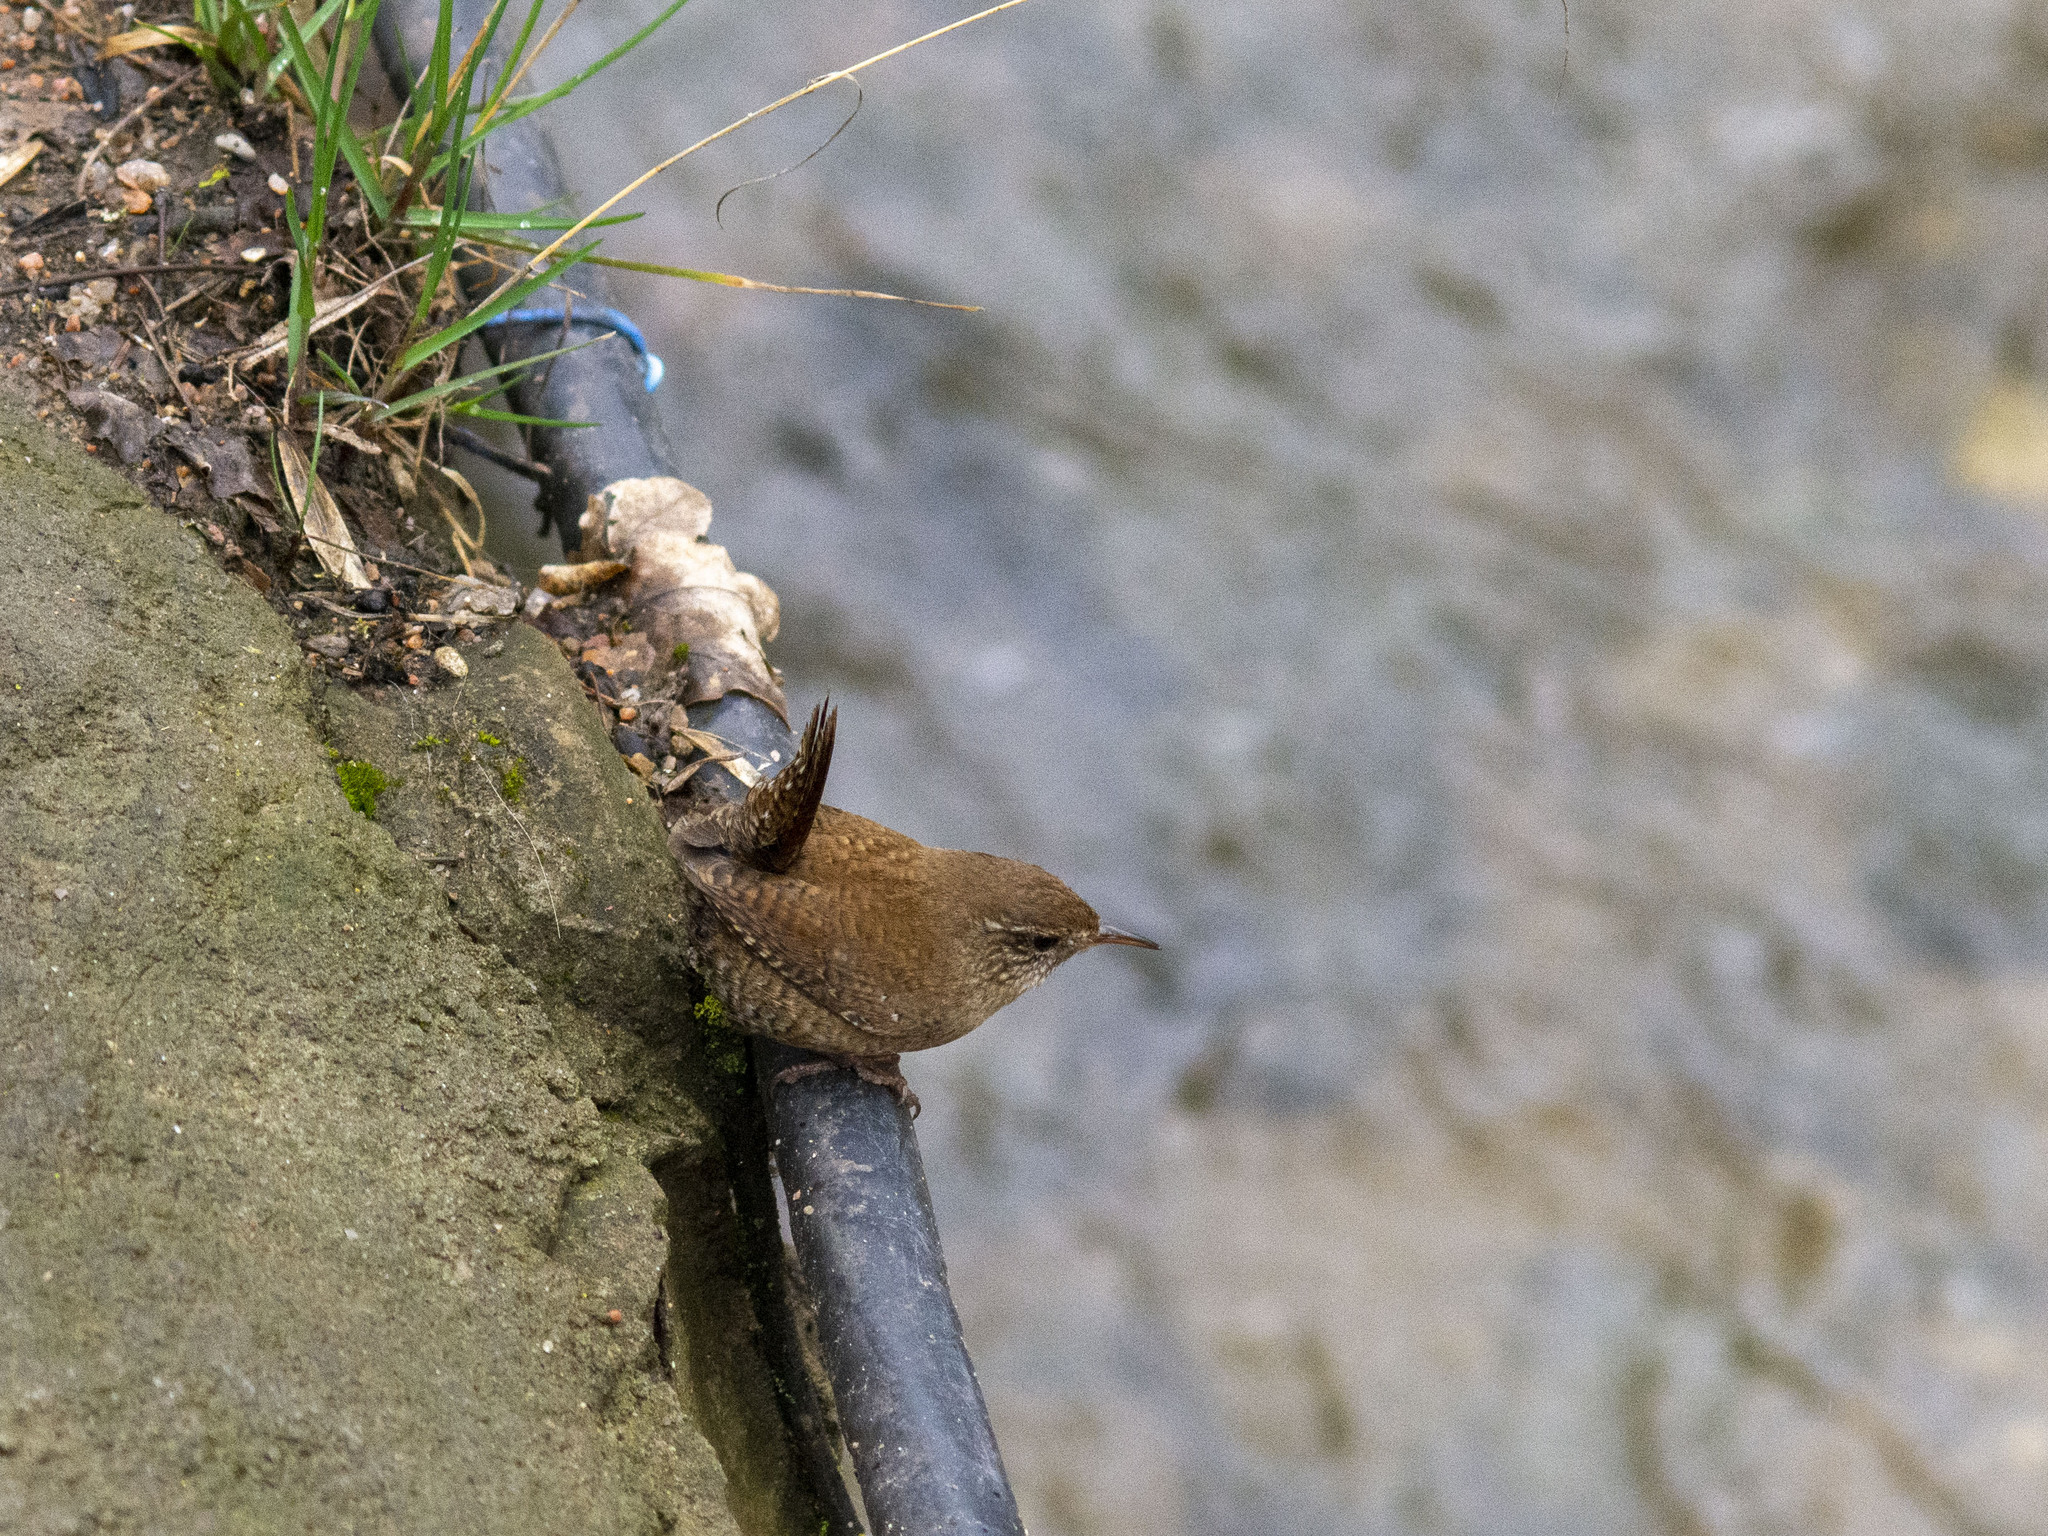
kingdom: Animalia
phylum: Chordata
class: Aves
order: Passeriformes
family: Troglodytidae
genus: Troglodytes
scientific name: Troglodytes troglodytes
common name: Eurasian wren
